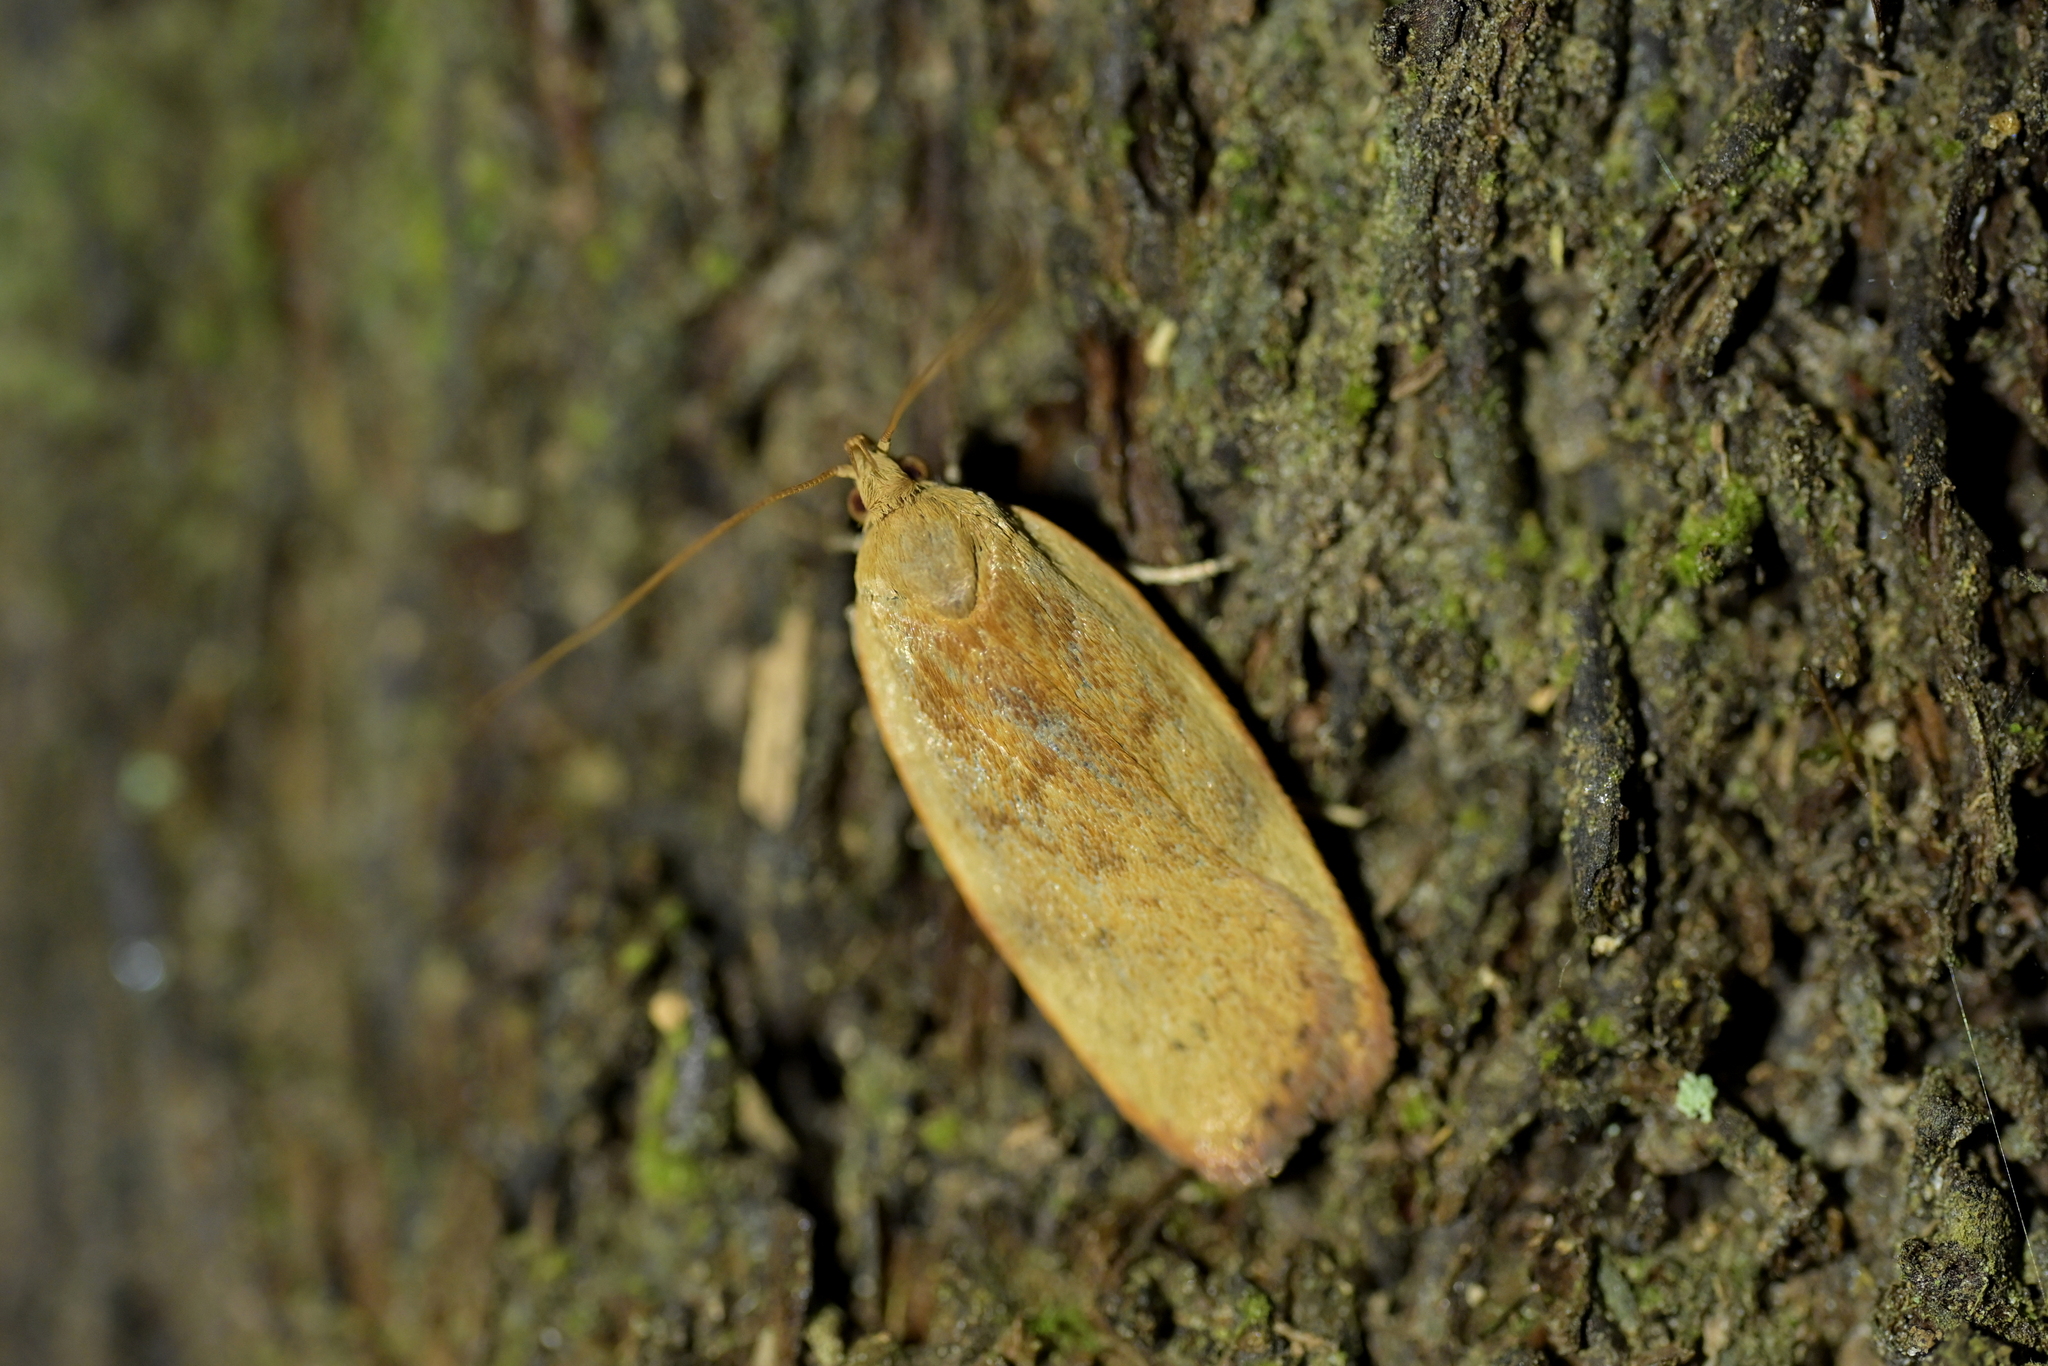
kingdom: Animalia
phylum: Arthropoda
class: Insecta
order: Lepidoptera
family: Depressariidae
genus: Phaeosaces
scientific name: Phaeosaces coarctatella
